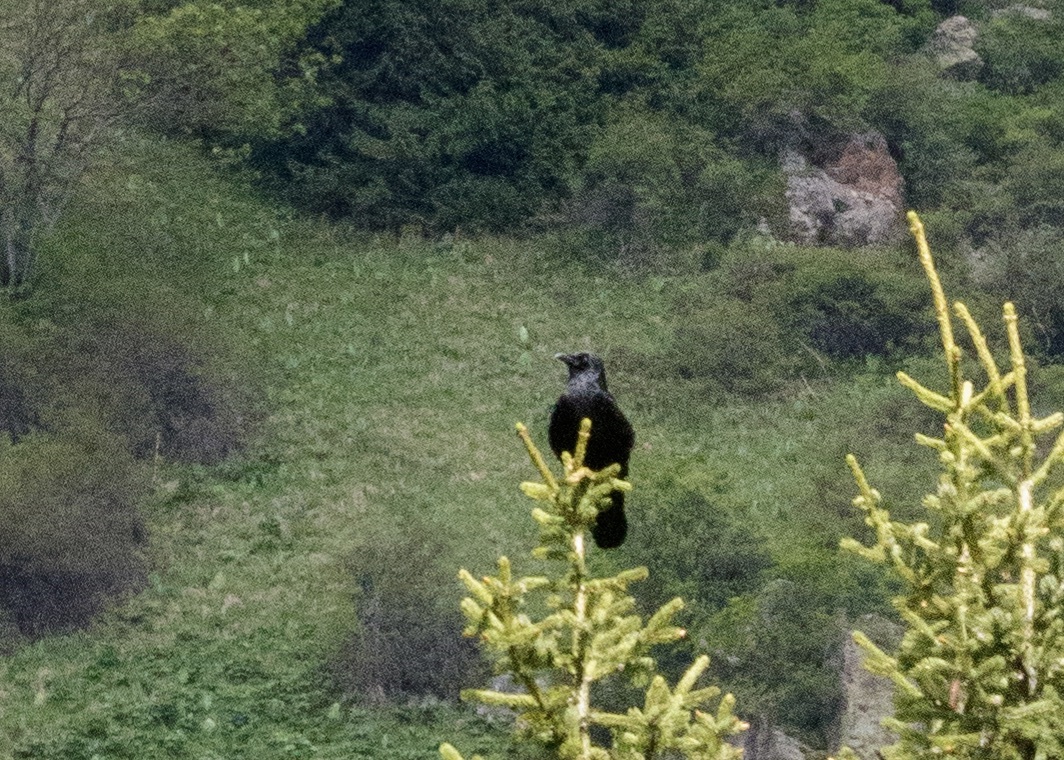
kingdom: Animalia
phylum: Chordata
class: Aves
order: Passeriformes
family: Corvidae
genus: Coloeus
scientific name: Coloeus monedula
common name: Western jackdaw
